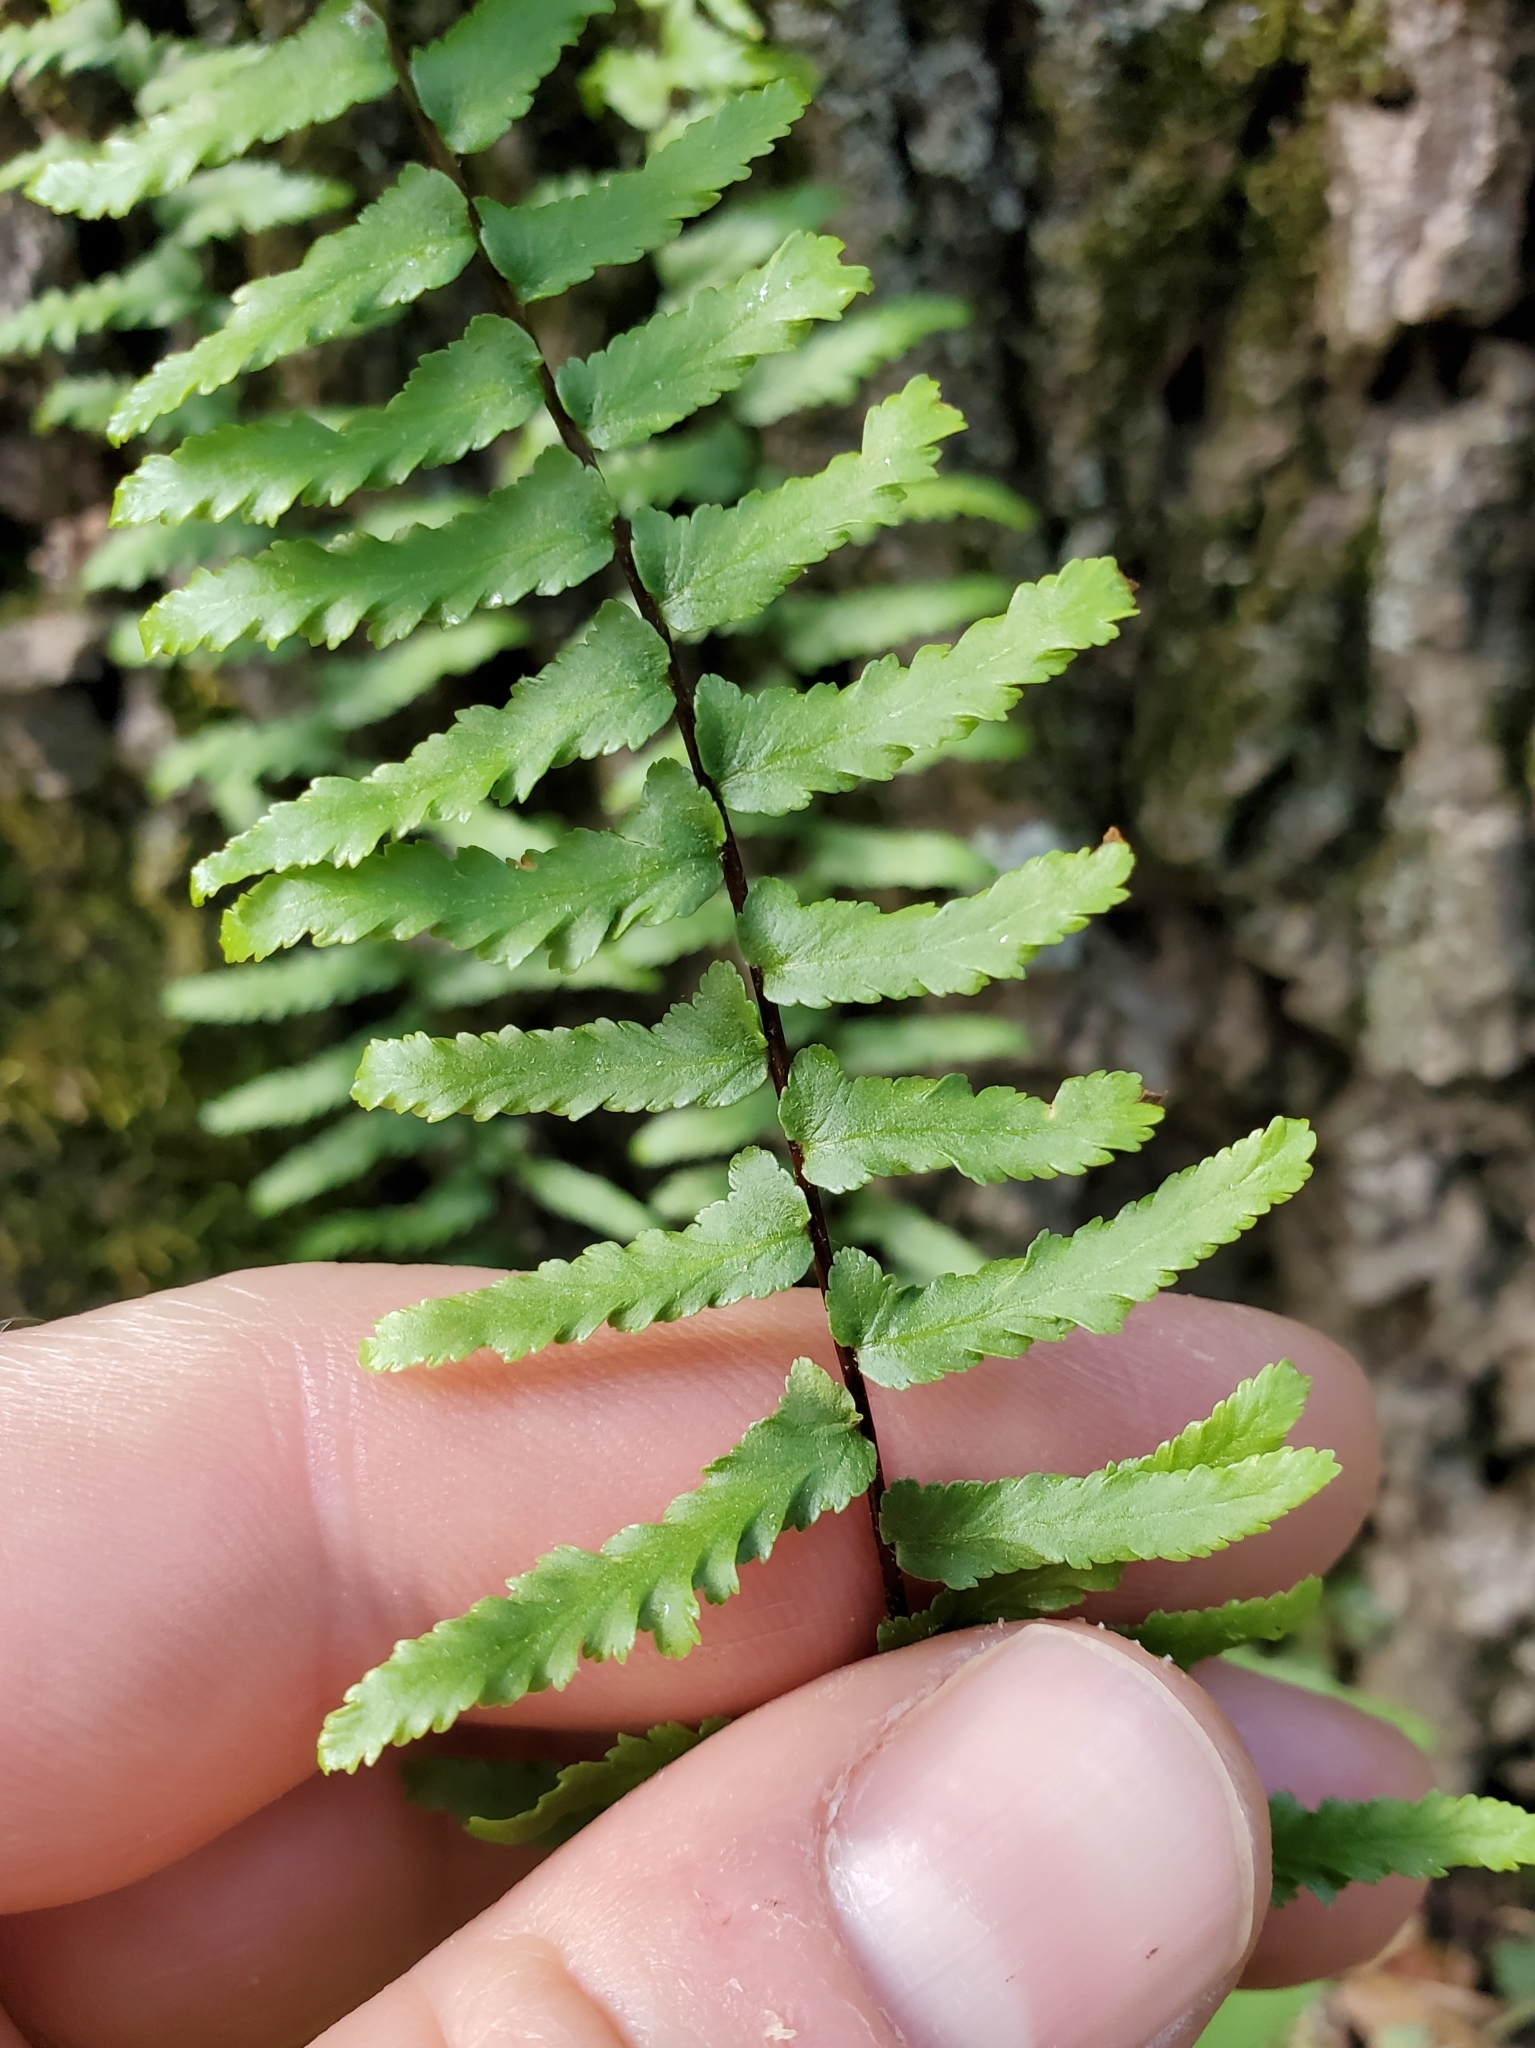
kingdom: Plantae
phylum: Tracheophyta
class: Polypodiopsida
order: Polypodiales
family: Aspleniaceae
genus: Asplenium
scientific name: Asplenium platyneuron
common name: Ebony spleenwort
